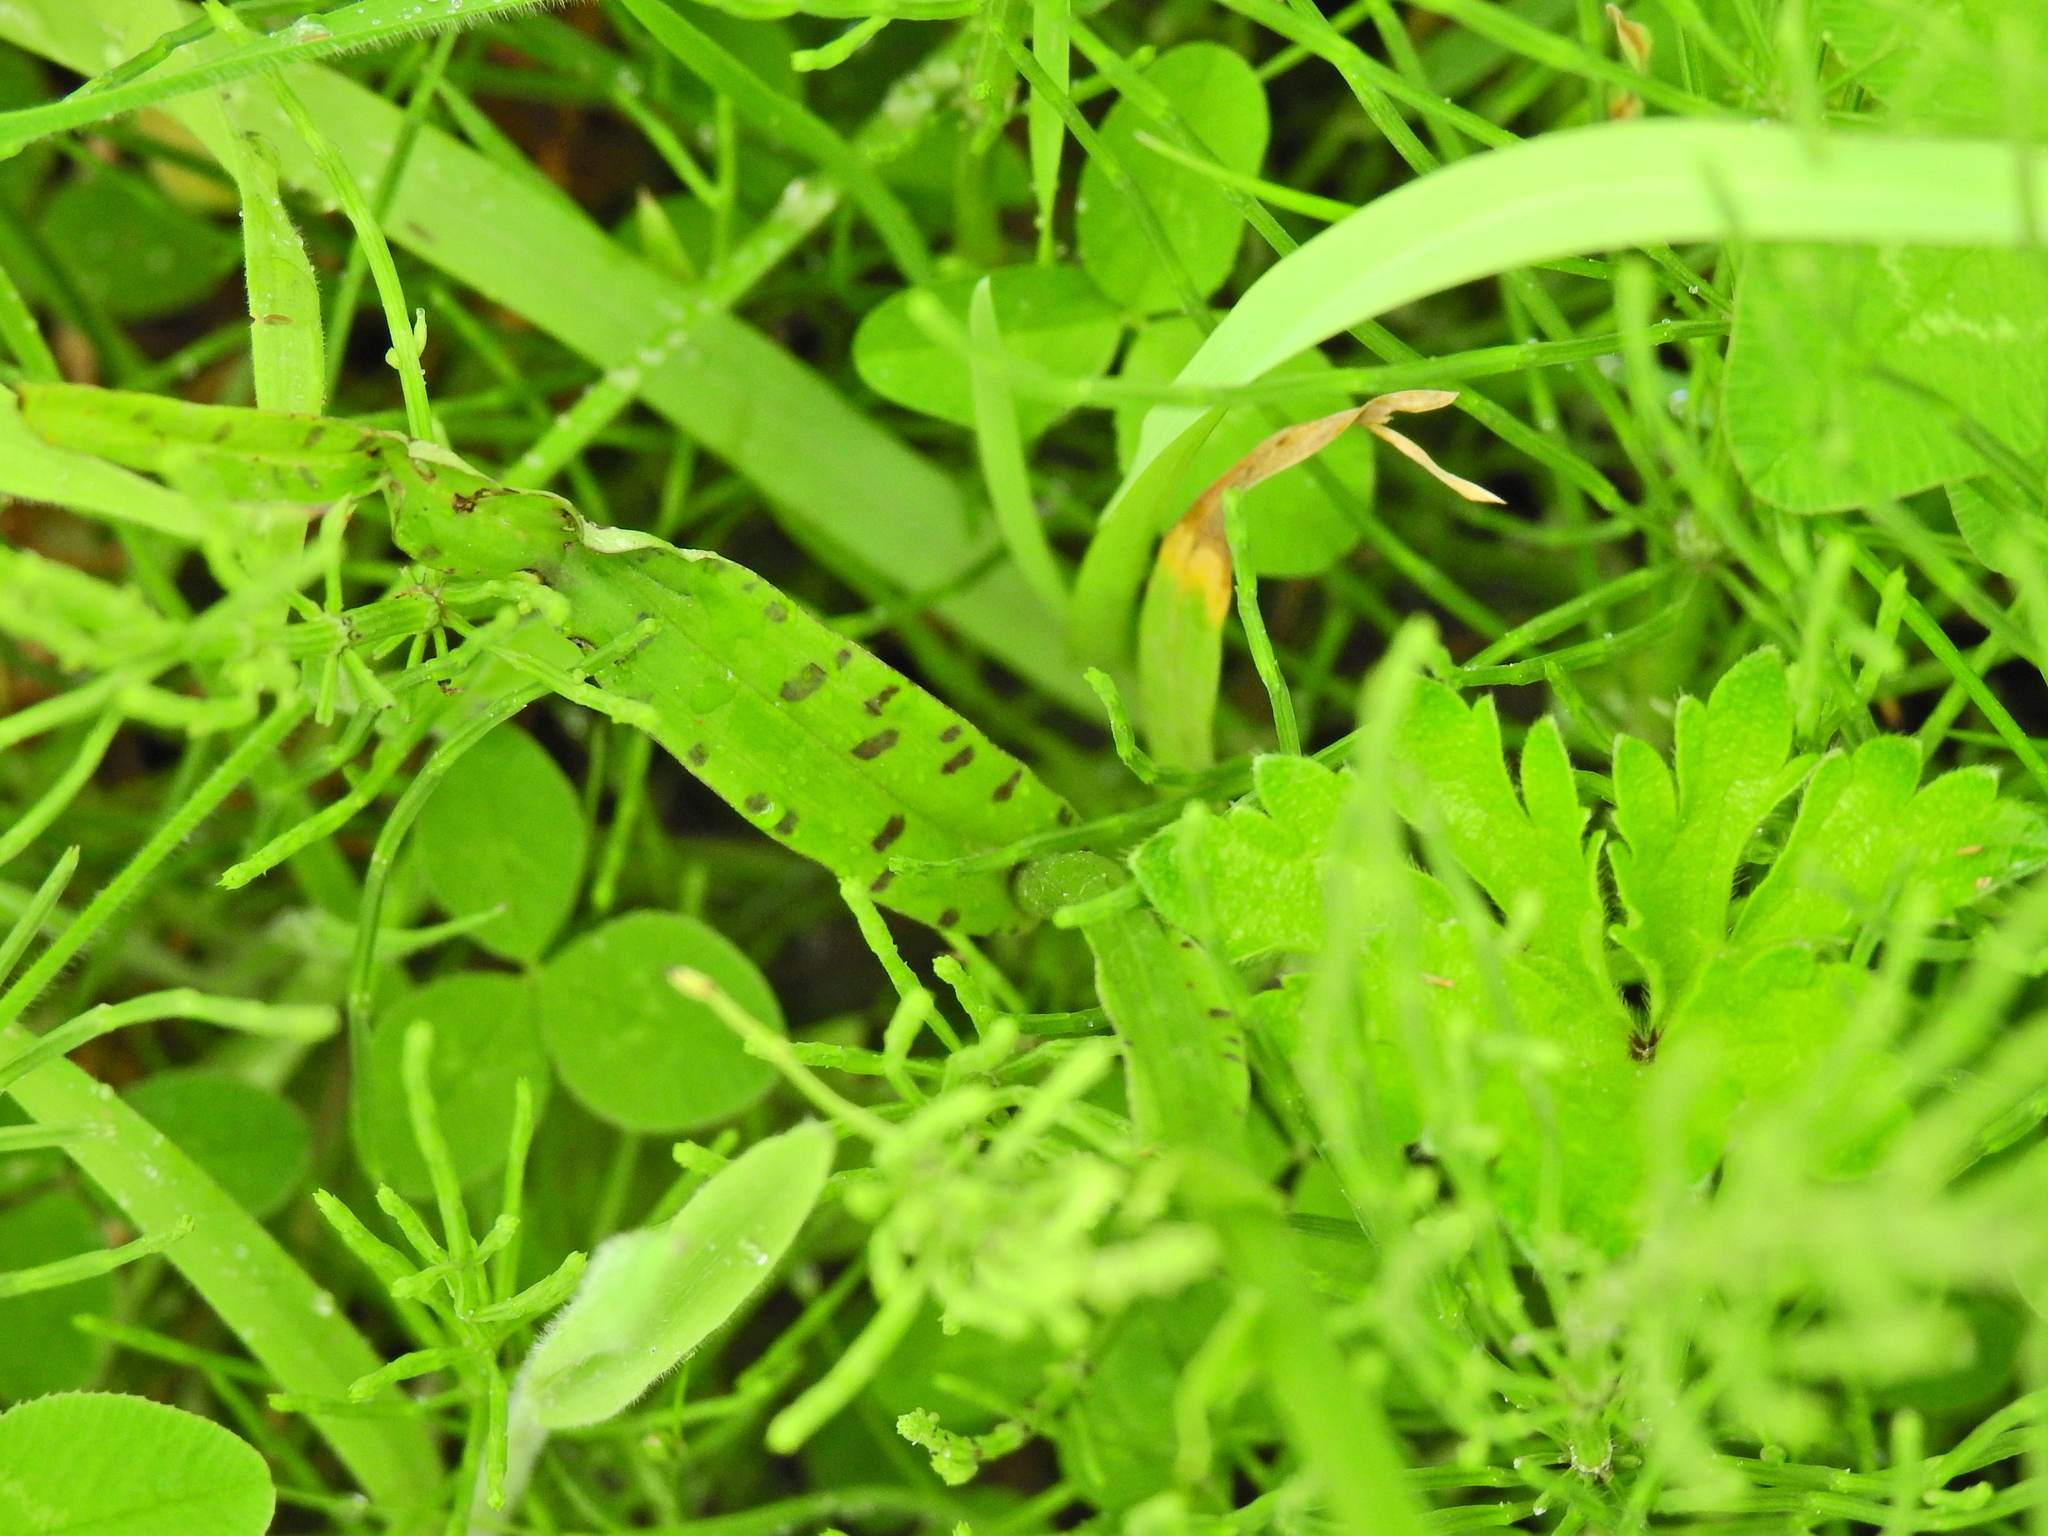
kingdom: Plantae
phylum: Tracheophyta
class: Liliopsida
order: Asparagales
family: Orchidaceae
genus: Dactylorhiza
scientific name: Dactylorhiza maculata
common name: Heath spotted-orchid
